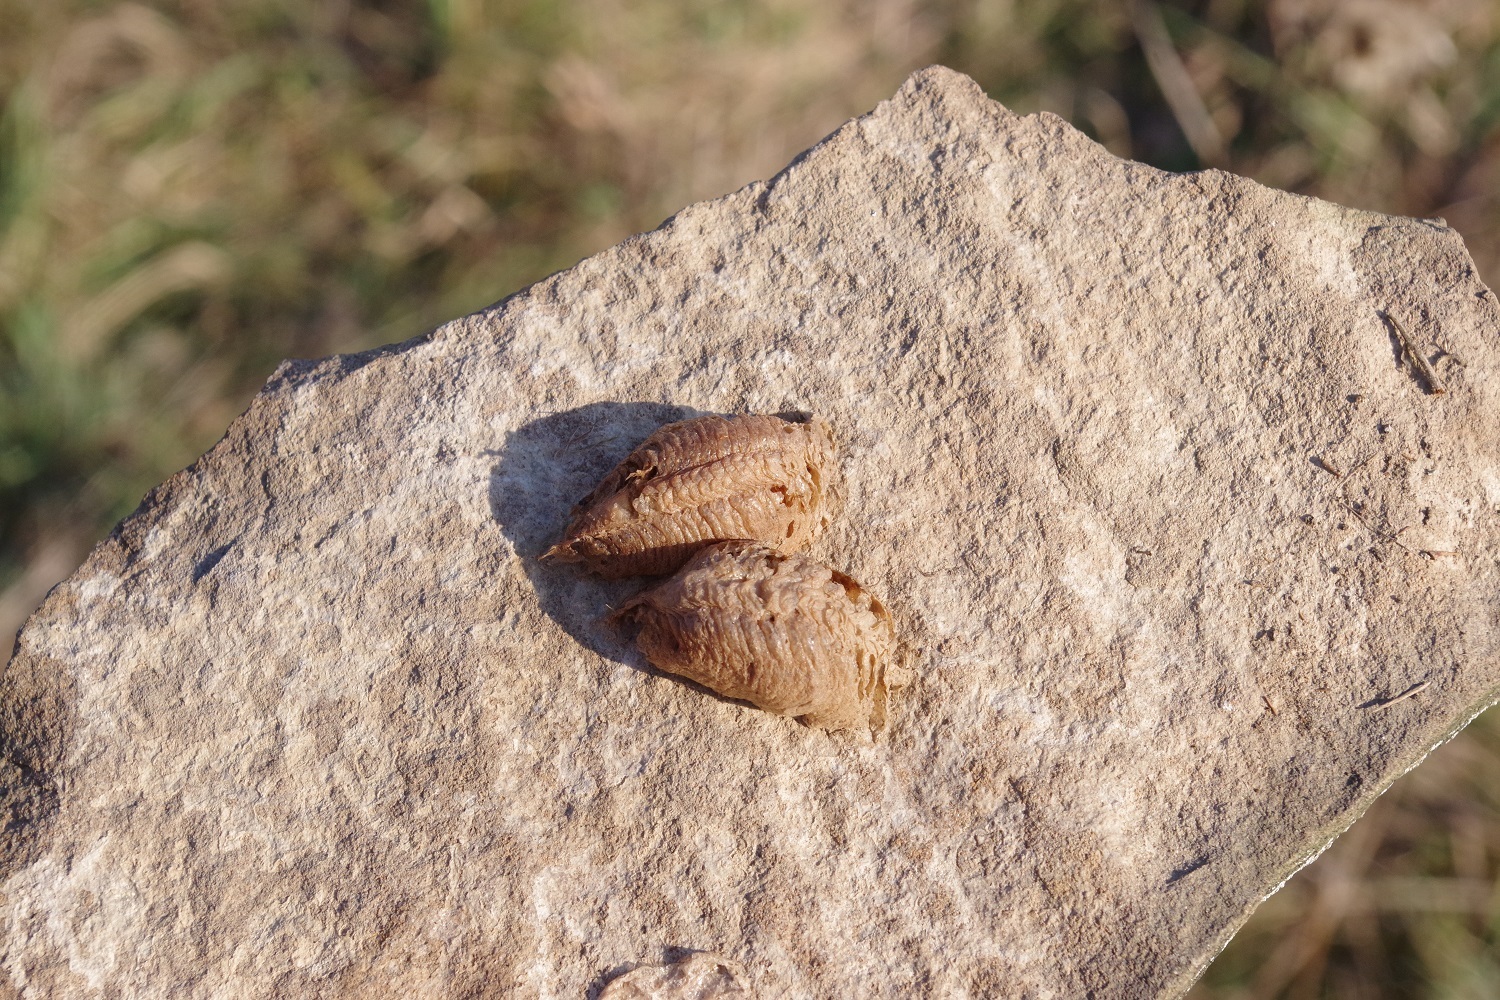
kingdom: Animalia
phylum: Arthropoda
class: Insecta
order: Mantodea
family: Mantidae
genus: Mantis
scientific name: Mantis religiosa
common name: Praying mantis
